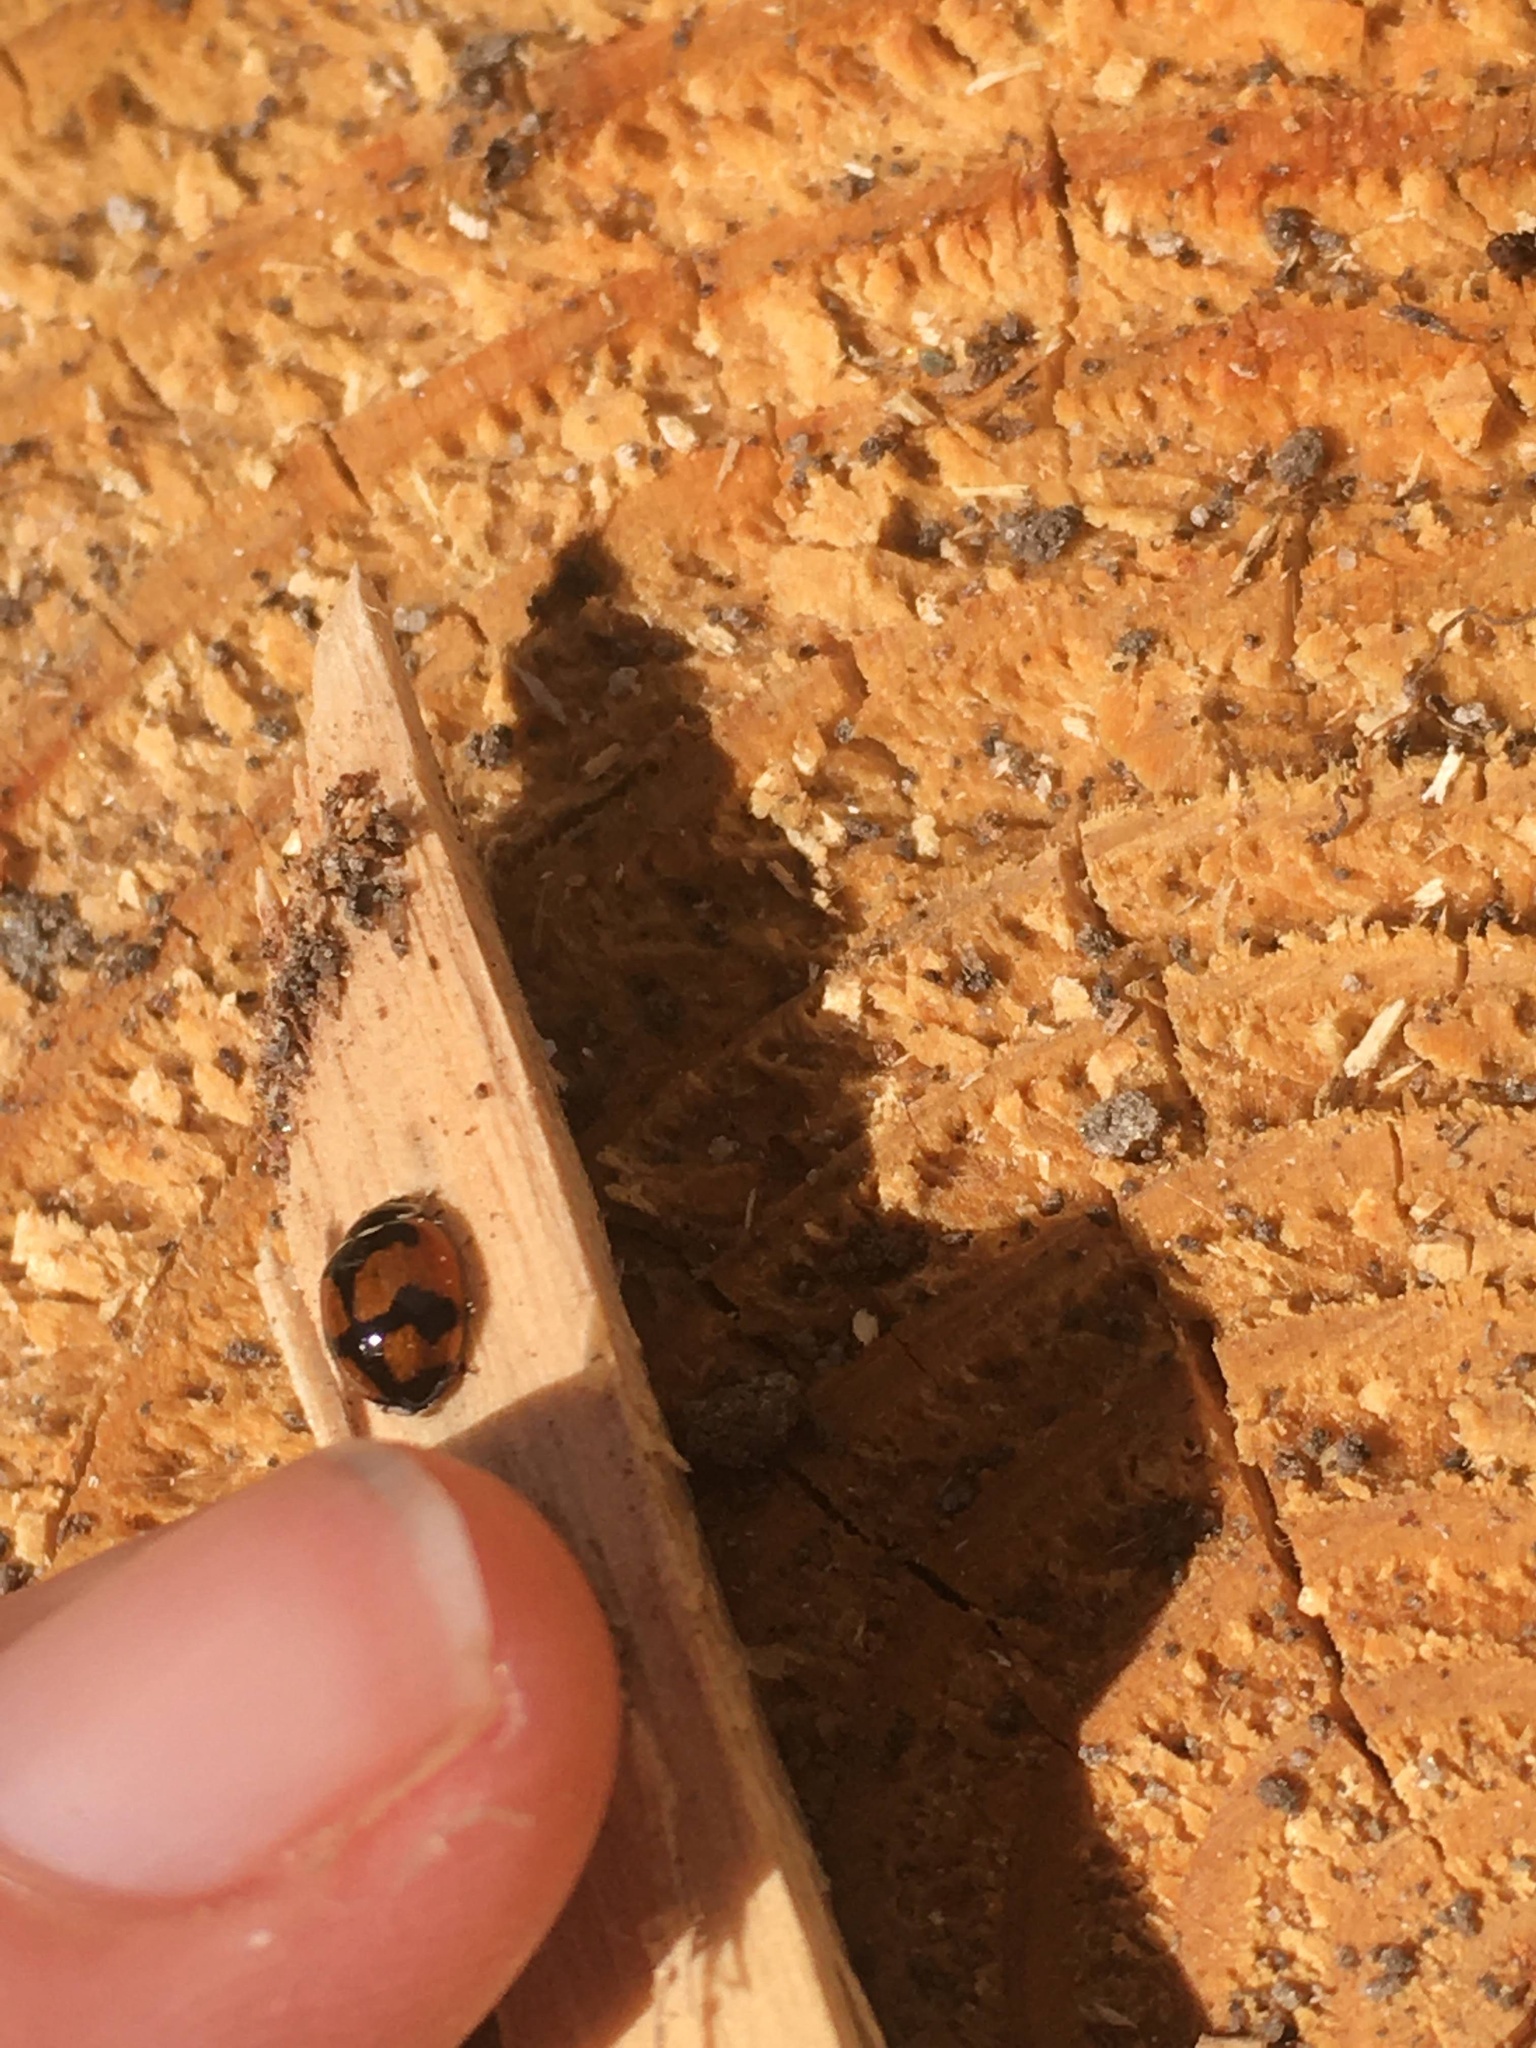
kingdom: Animalia
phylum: Arthropoda
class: Insecta
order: Coleoptera
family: Coccinellidae
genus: Adalia
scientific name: Adalia deficiens
